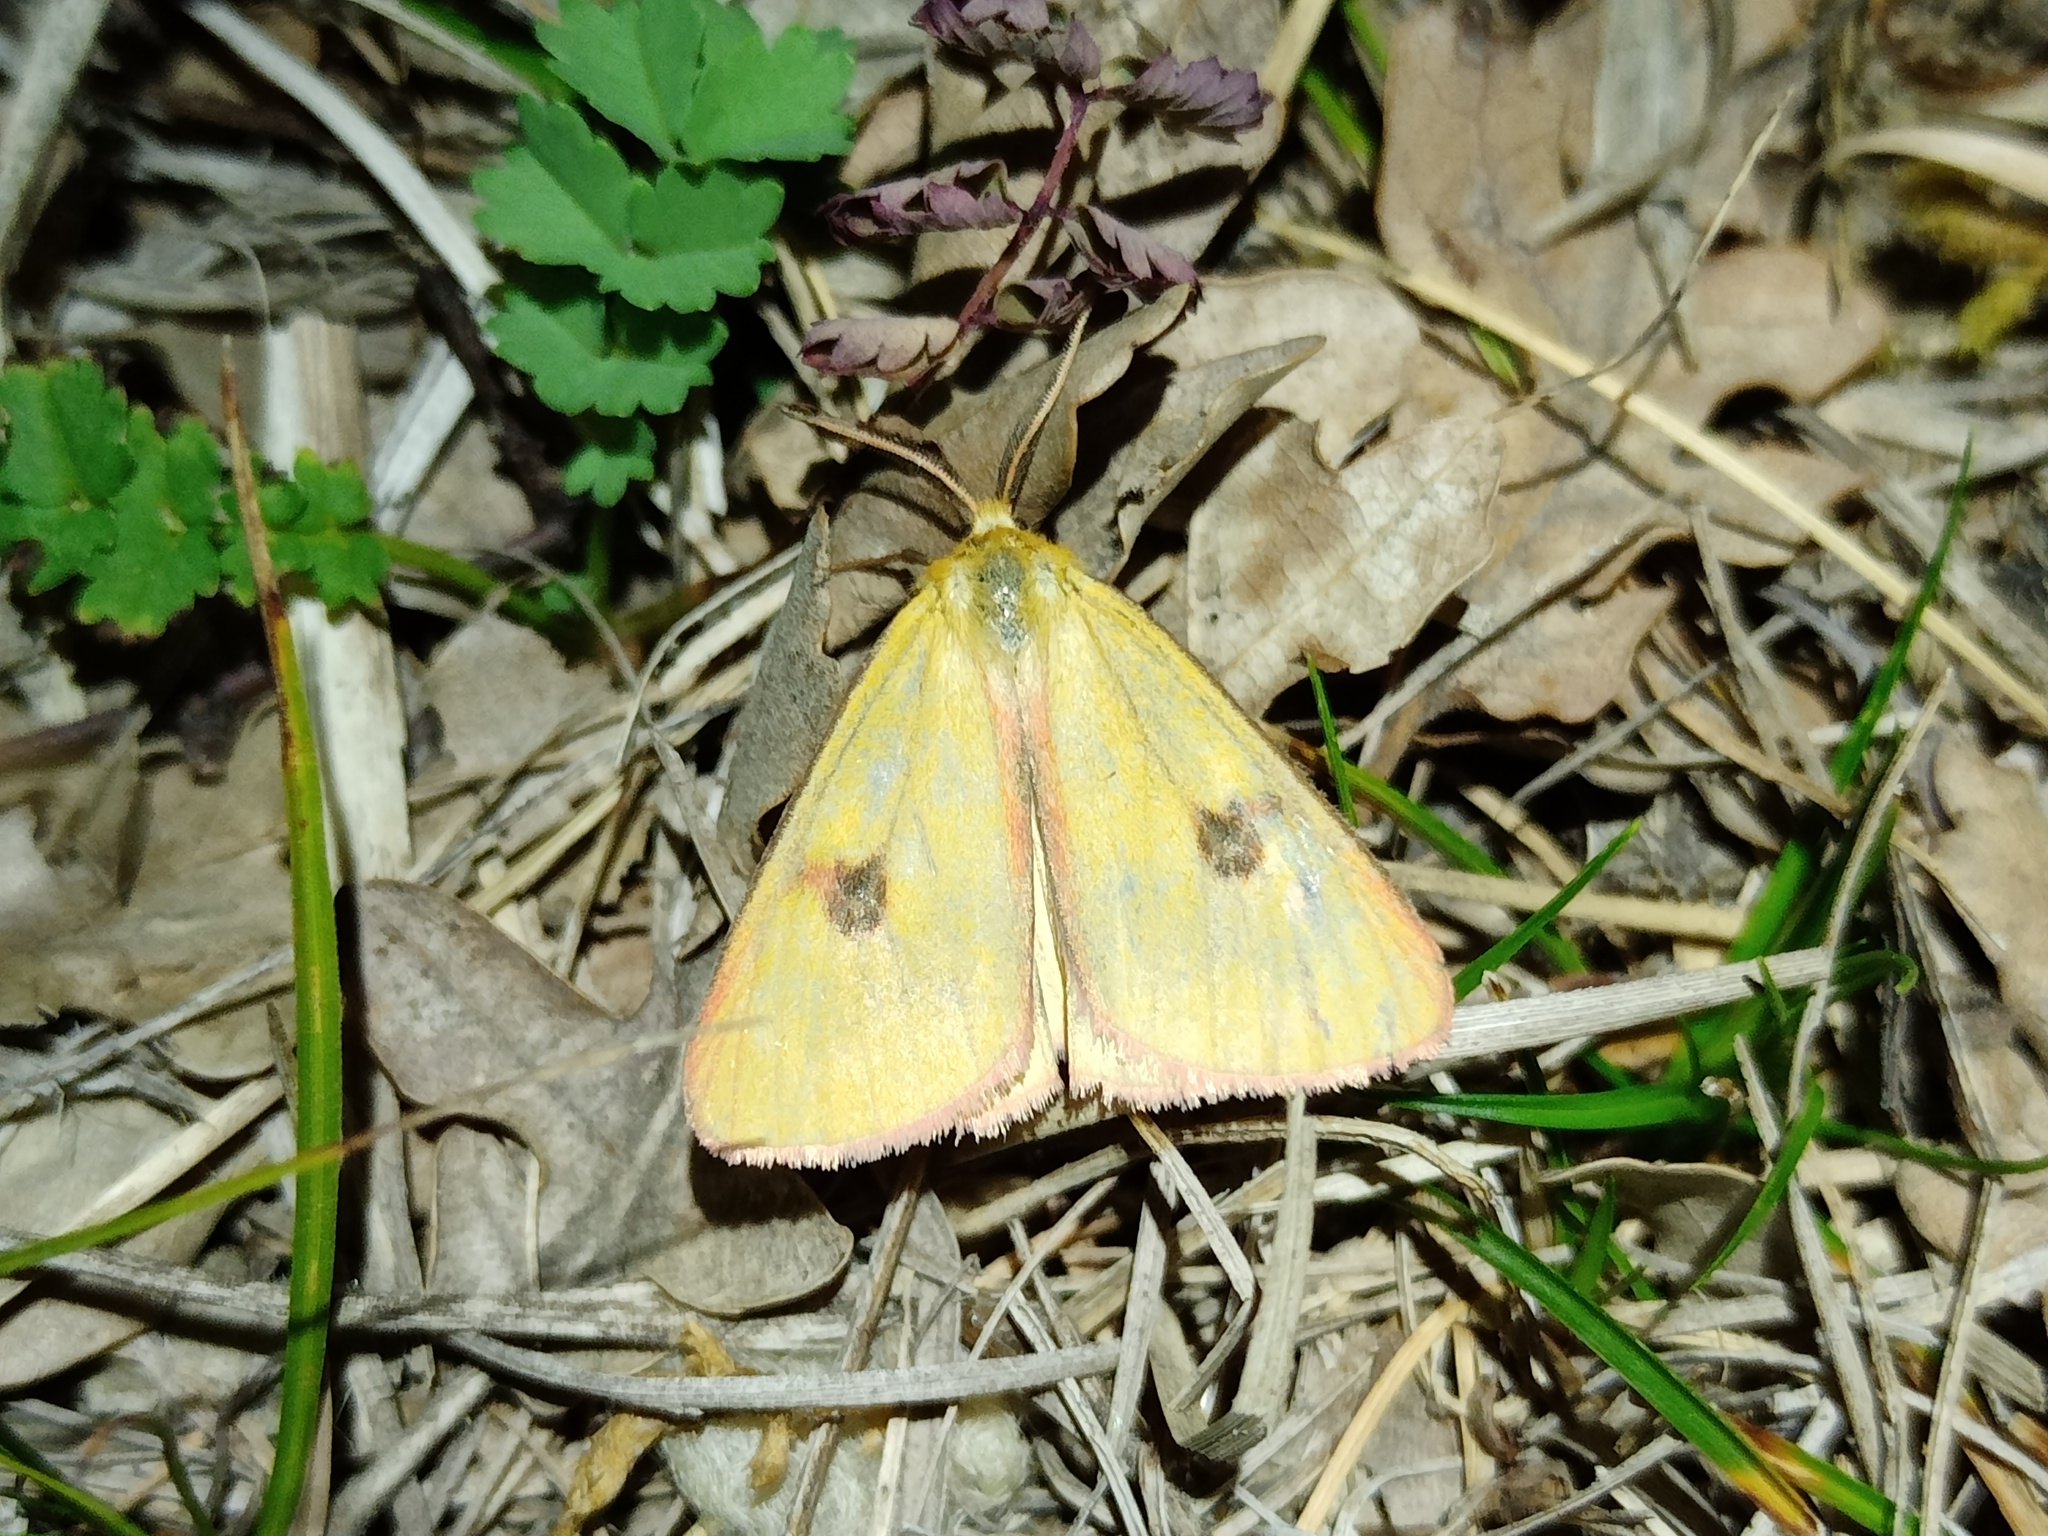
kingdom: Animalia
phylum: Arthropoda
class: Insecta
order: Lepidoptera
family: Erebidae
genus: Diacrisia
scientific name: Diacrisia sannio
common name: Clouded buff
